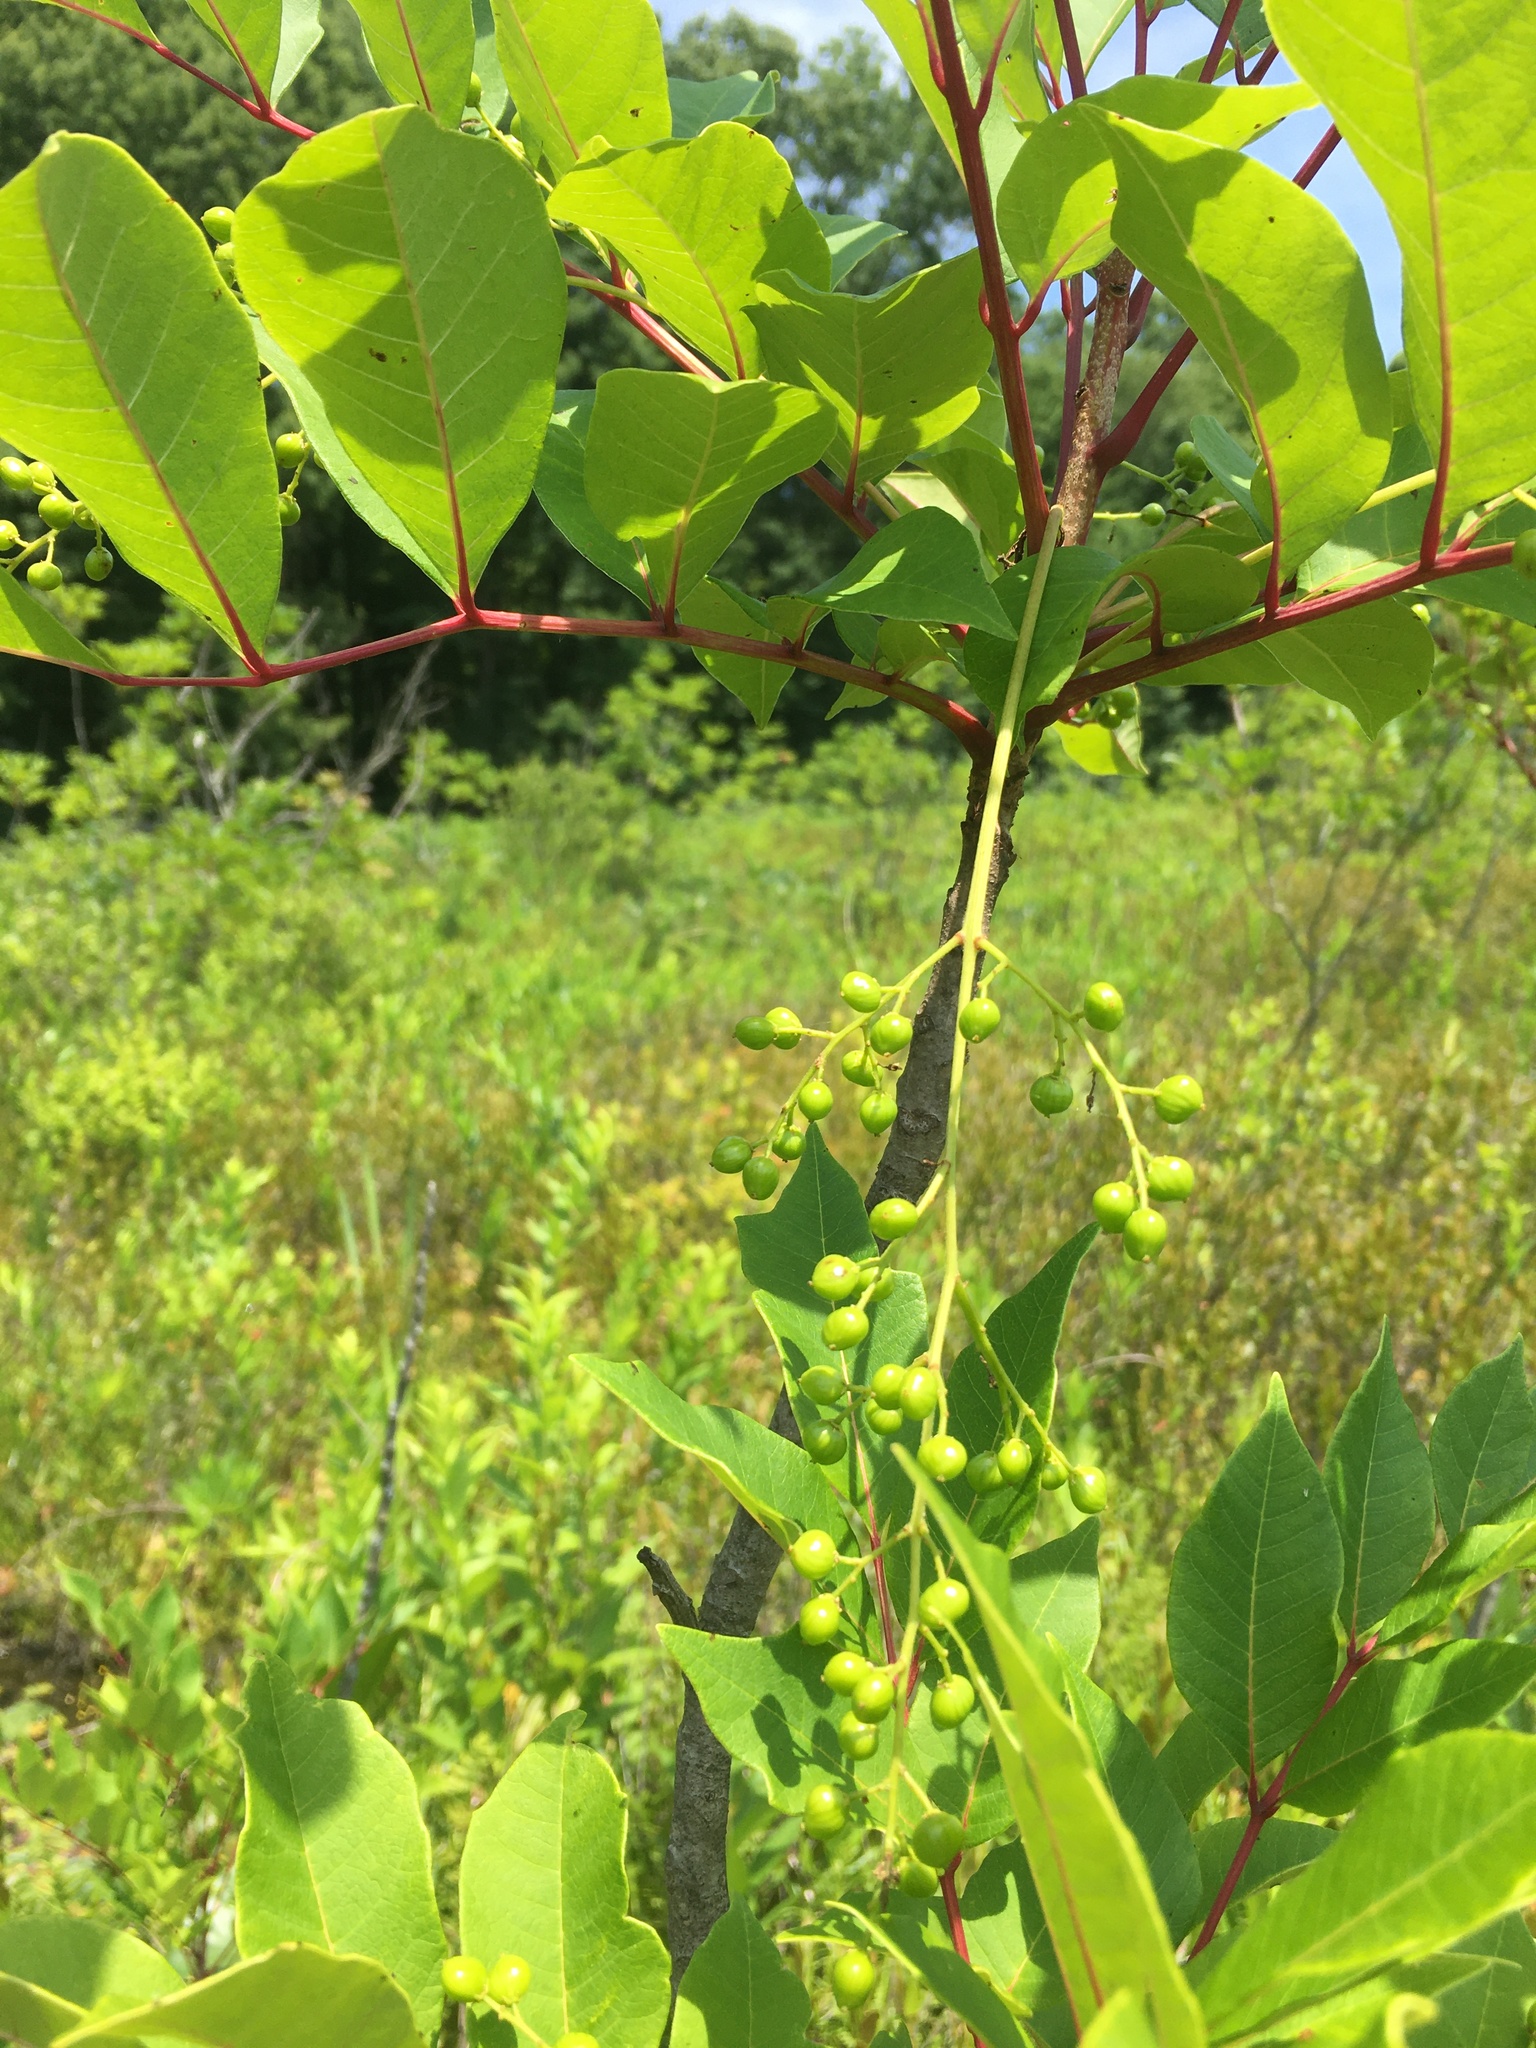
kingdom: Plantae
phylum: Tracheophyta
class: Magnoliopsida
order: Sapindales
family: Anacardiaceae
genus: Toxicodendron
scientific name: Toxicodendron vernix
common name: Poison sumac
